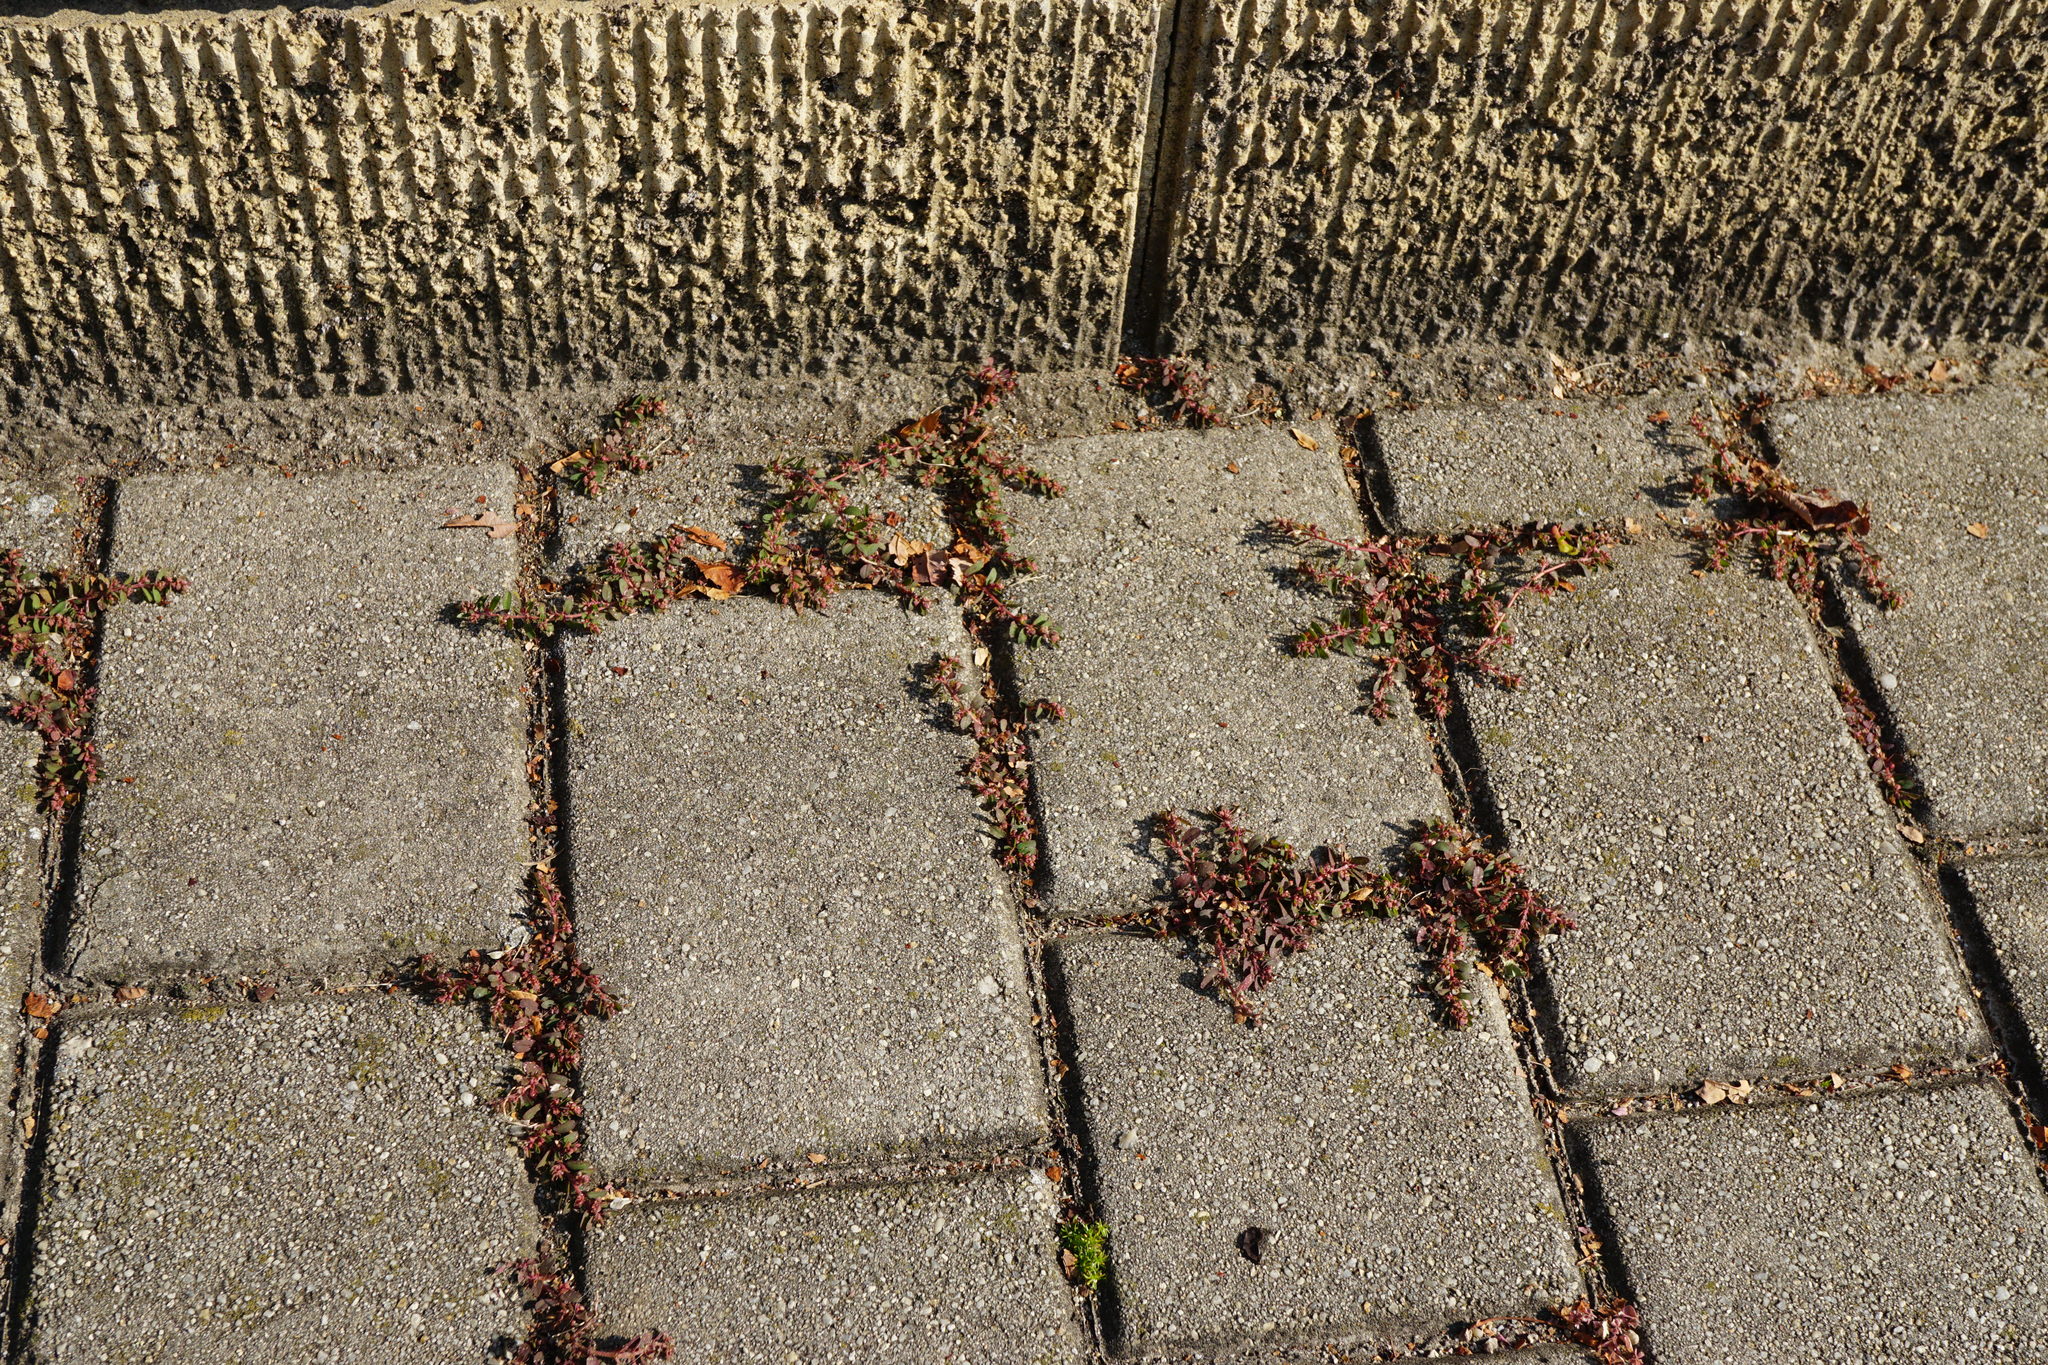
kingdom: Plantae
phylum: Tracheophyta
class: Magnoliopsida
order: Malpighiales
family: Euphorbiaceae
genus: Euphorbia
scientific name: Euphorbia maculata
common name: Spotted spurge
